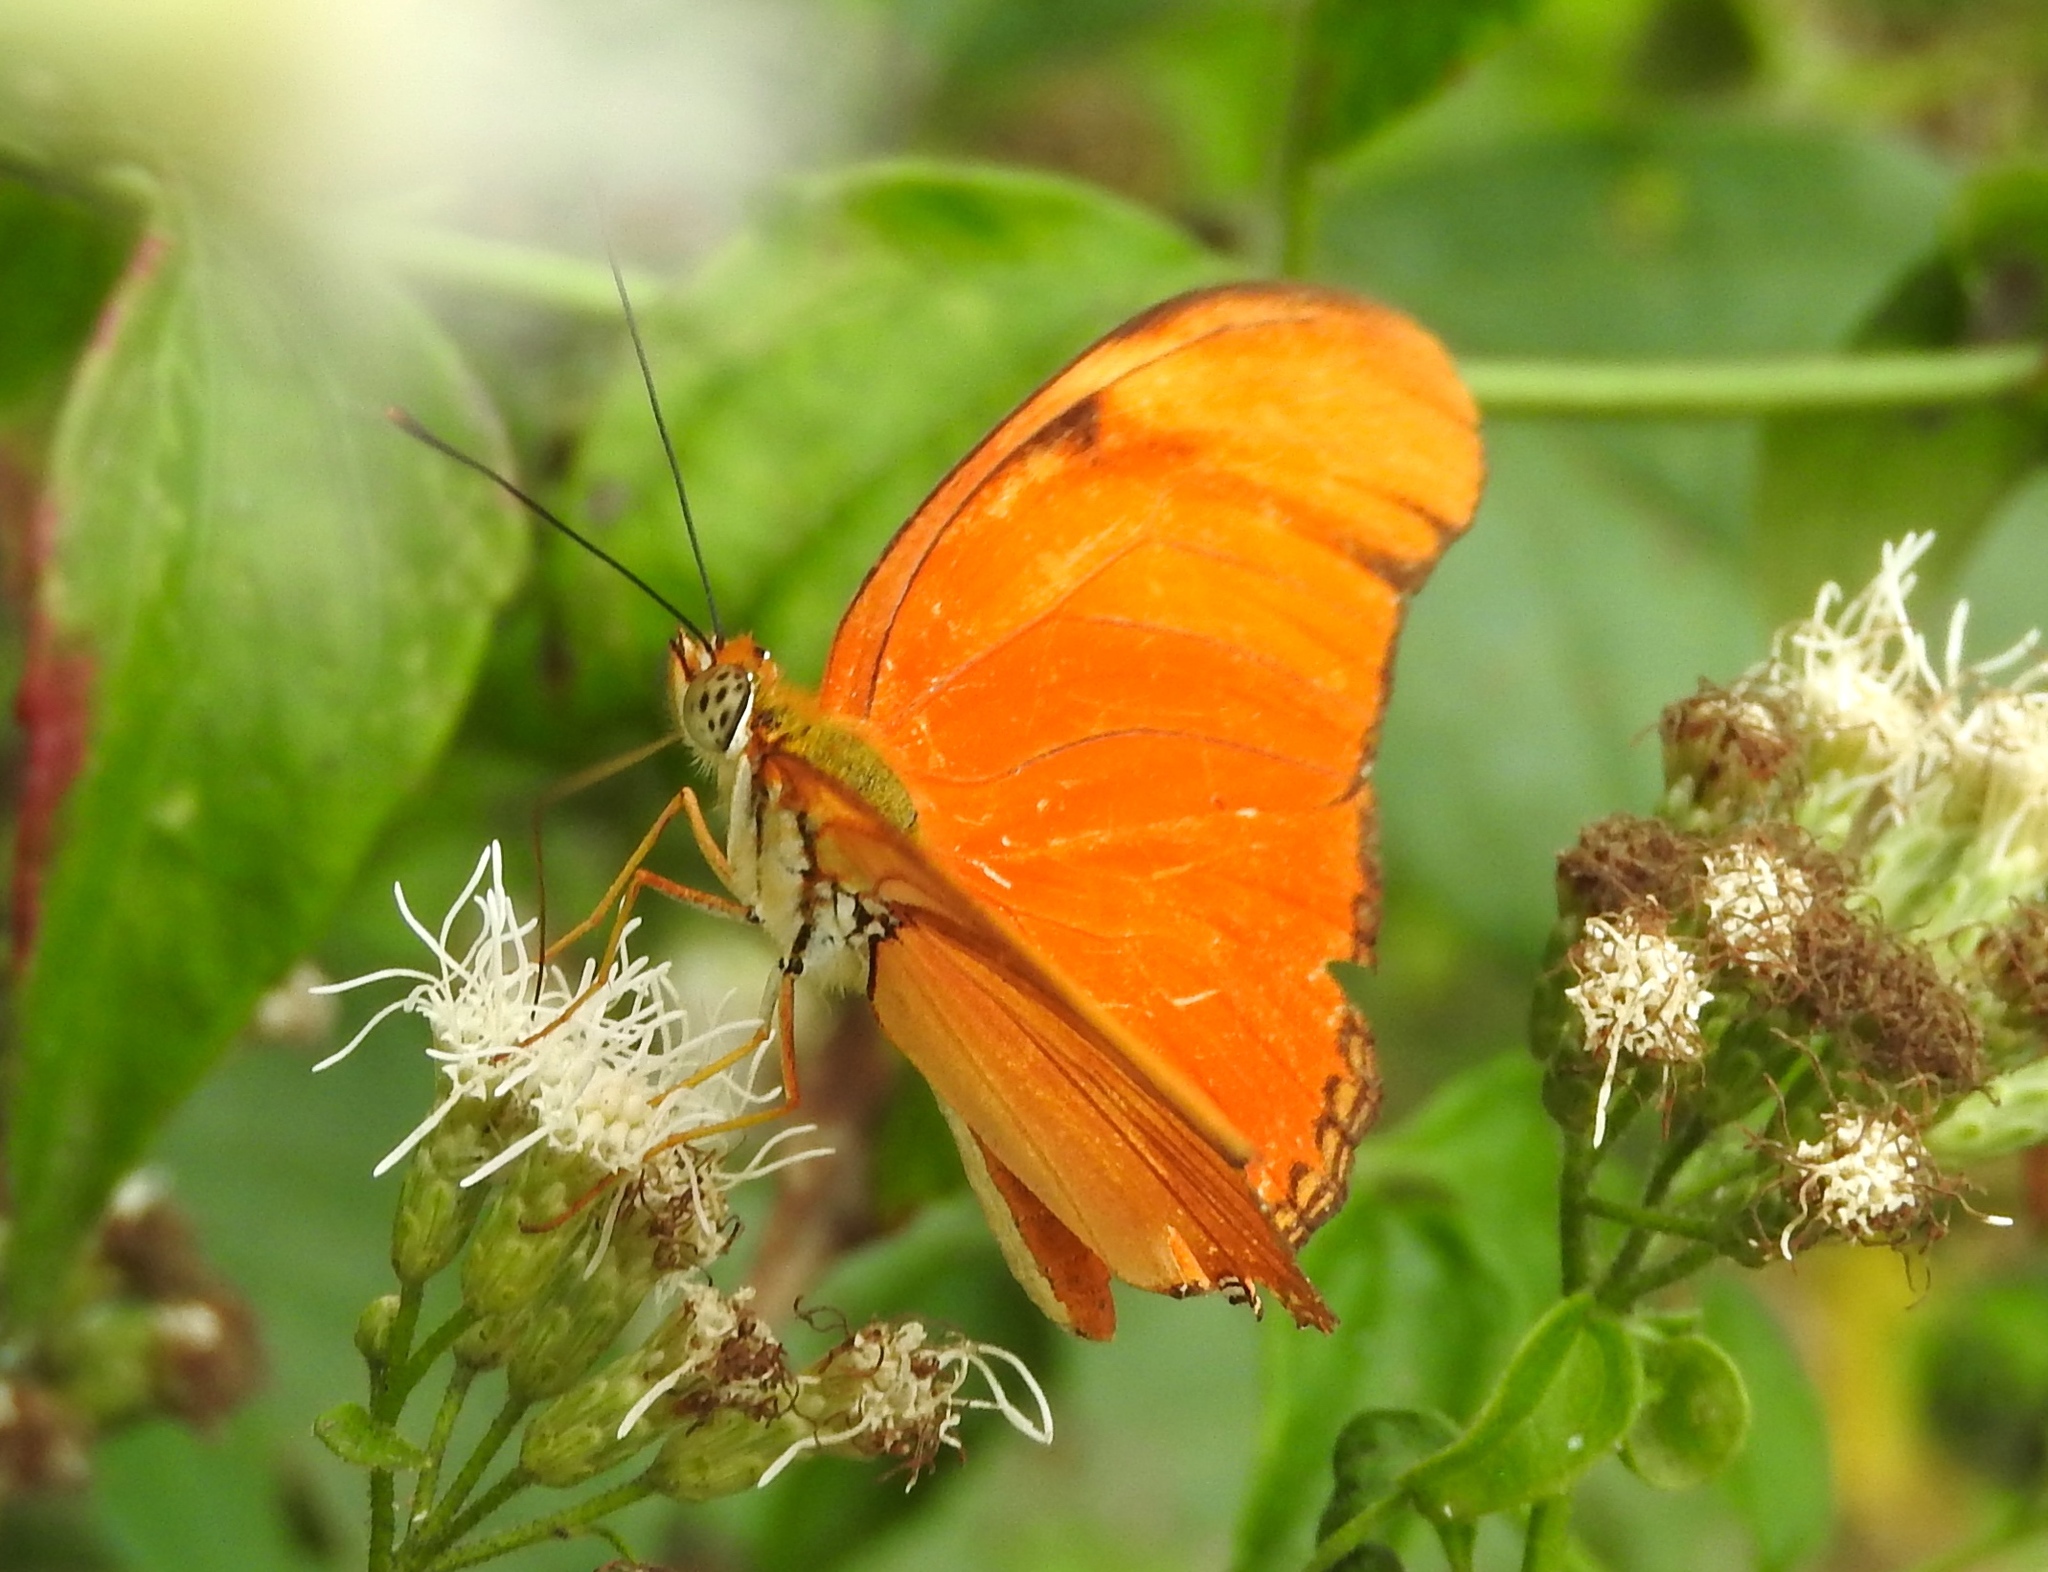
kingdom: Animalia
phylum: Arthropoda
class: Insecta
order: Lepidoptera
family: Nymphalidae
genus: Dryas
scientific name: Dryas iulia
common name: Flambeau
